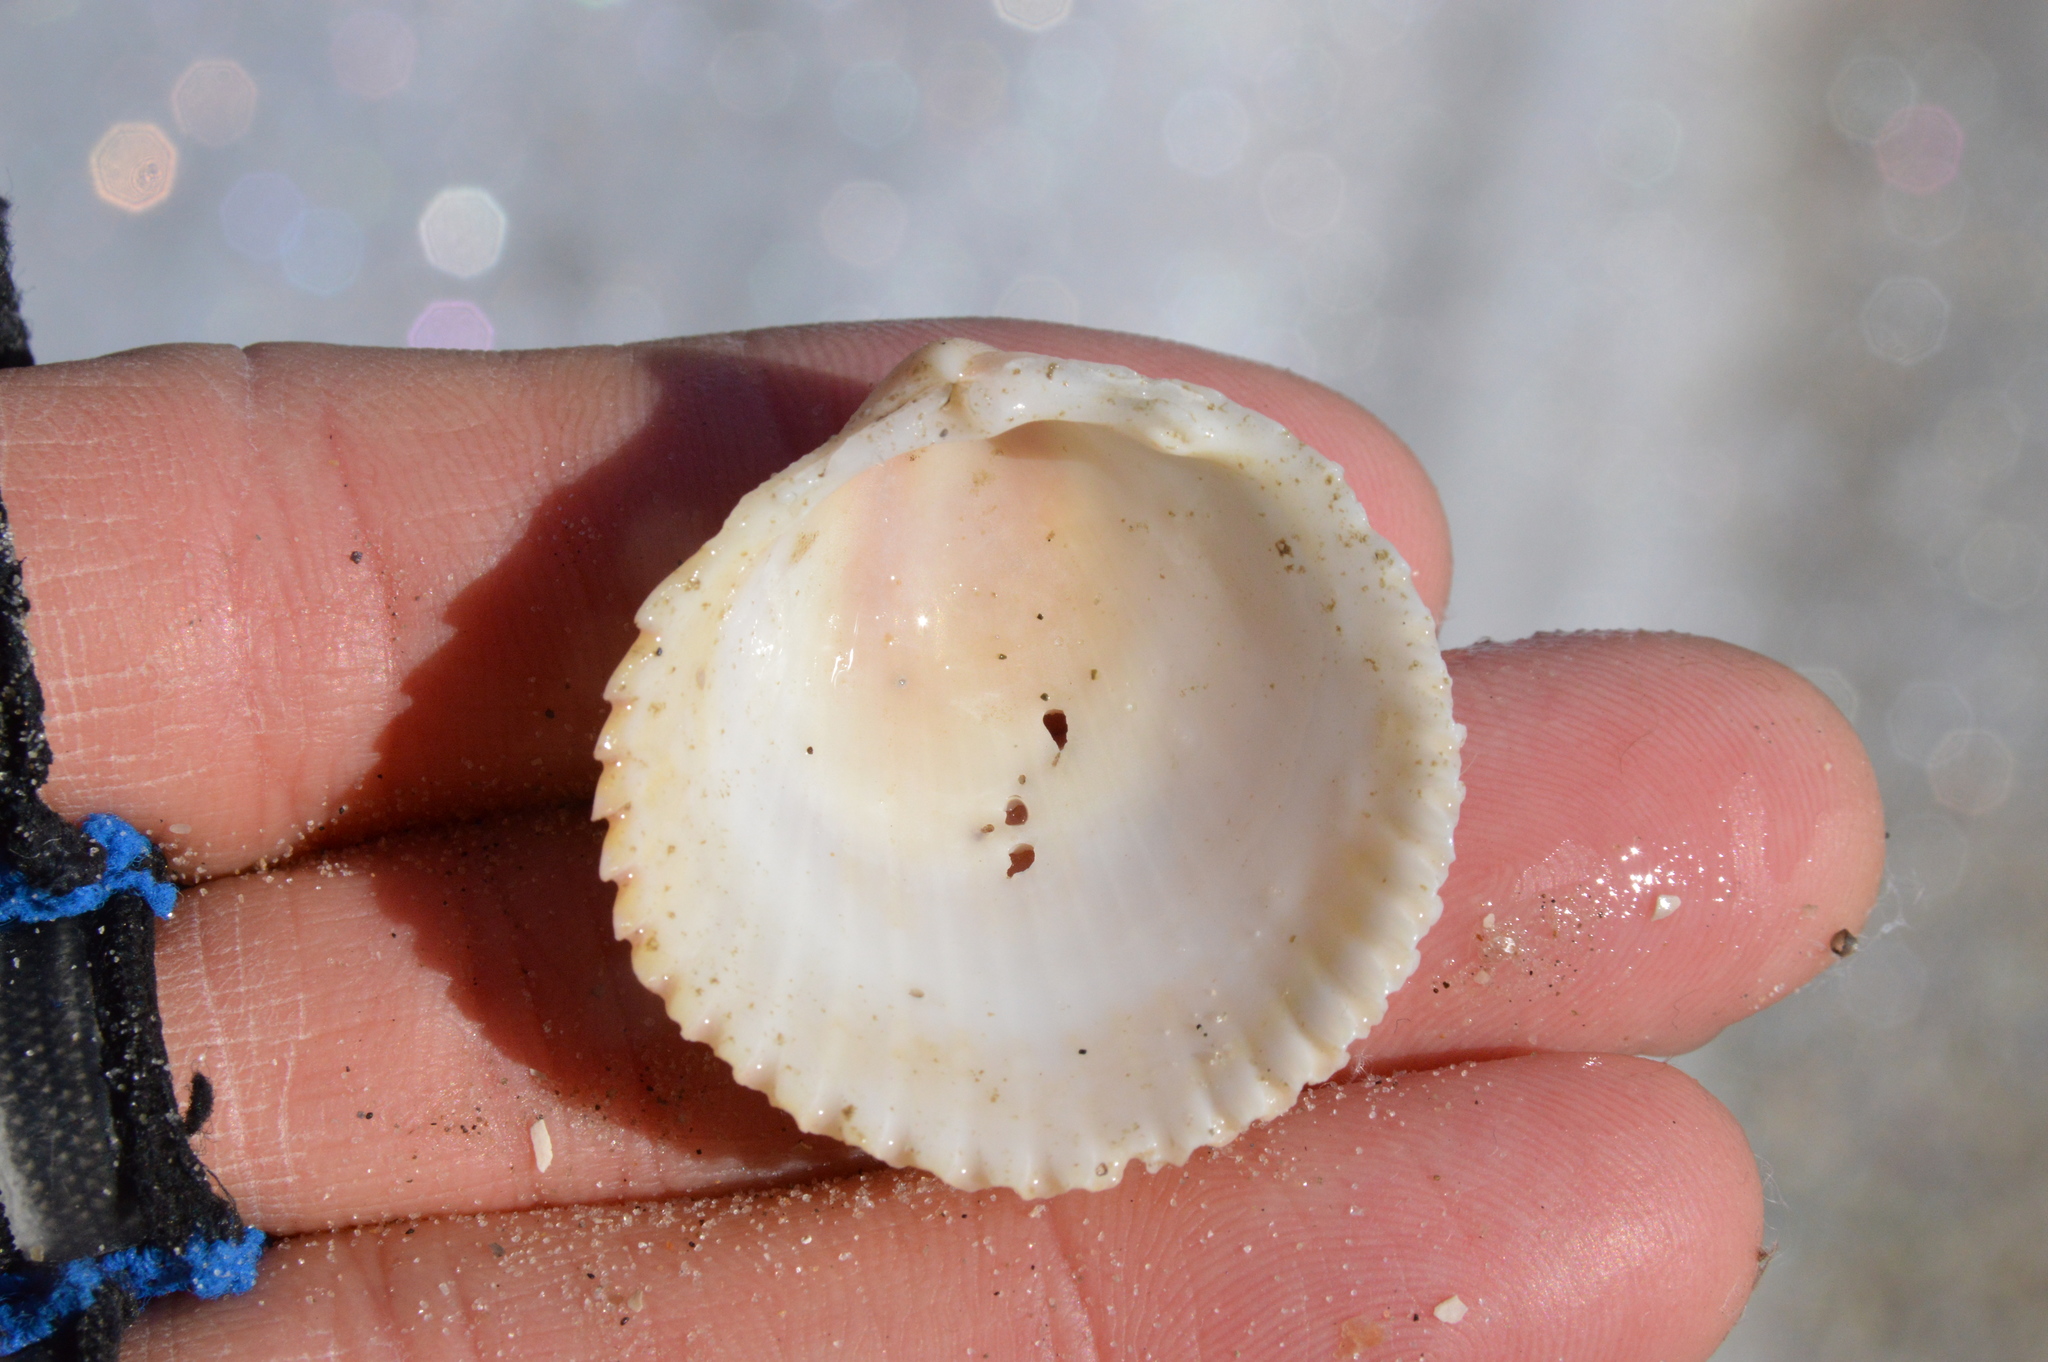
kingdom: Animalia
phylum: Mollusca
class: Bivalvia
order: Cardiida
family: Cardiidae
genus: Dallocardia
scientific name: Dallocardia muricata
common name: Yellow pricklycockle
